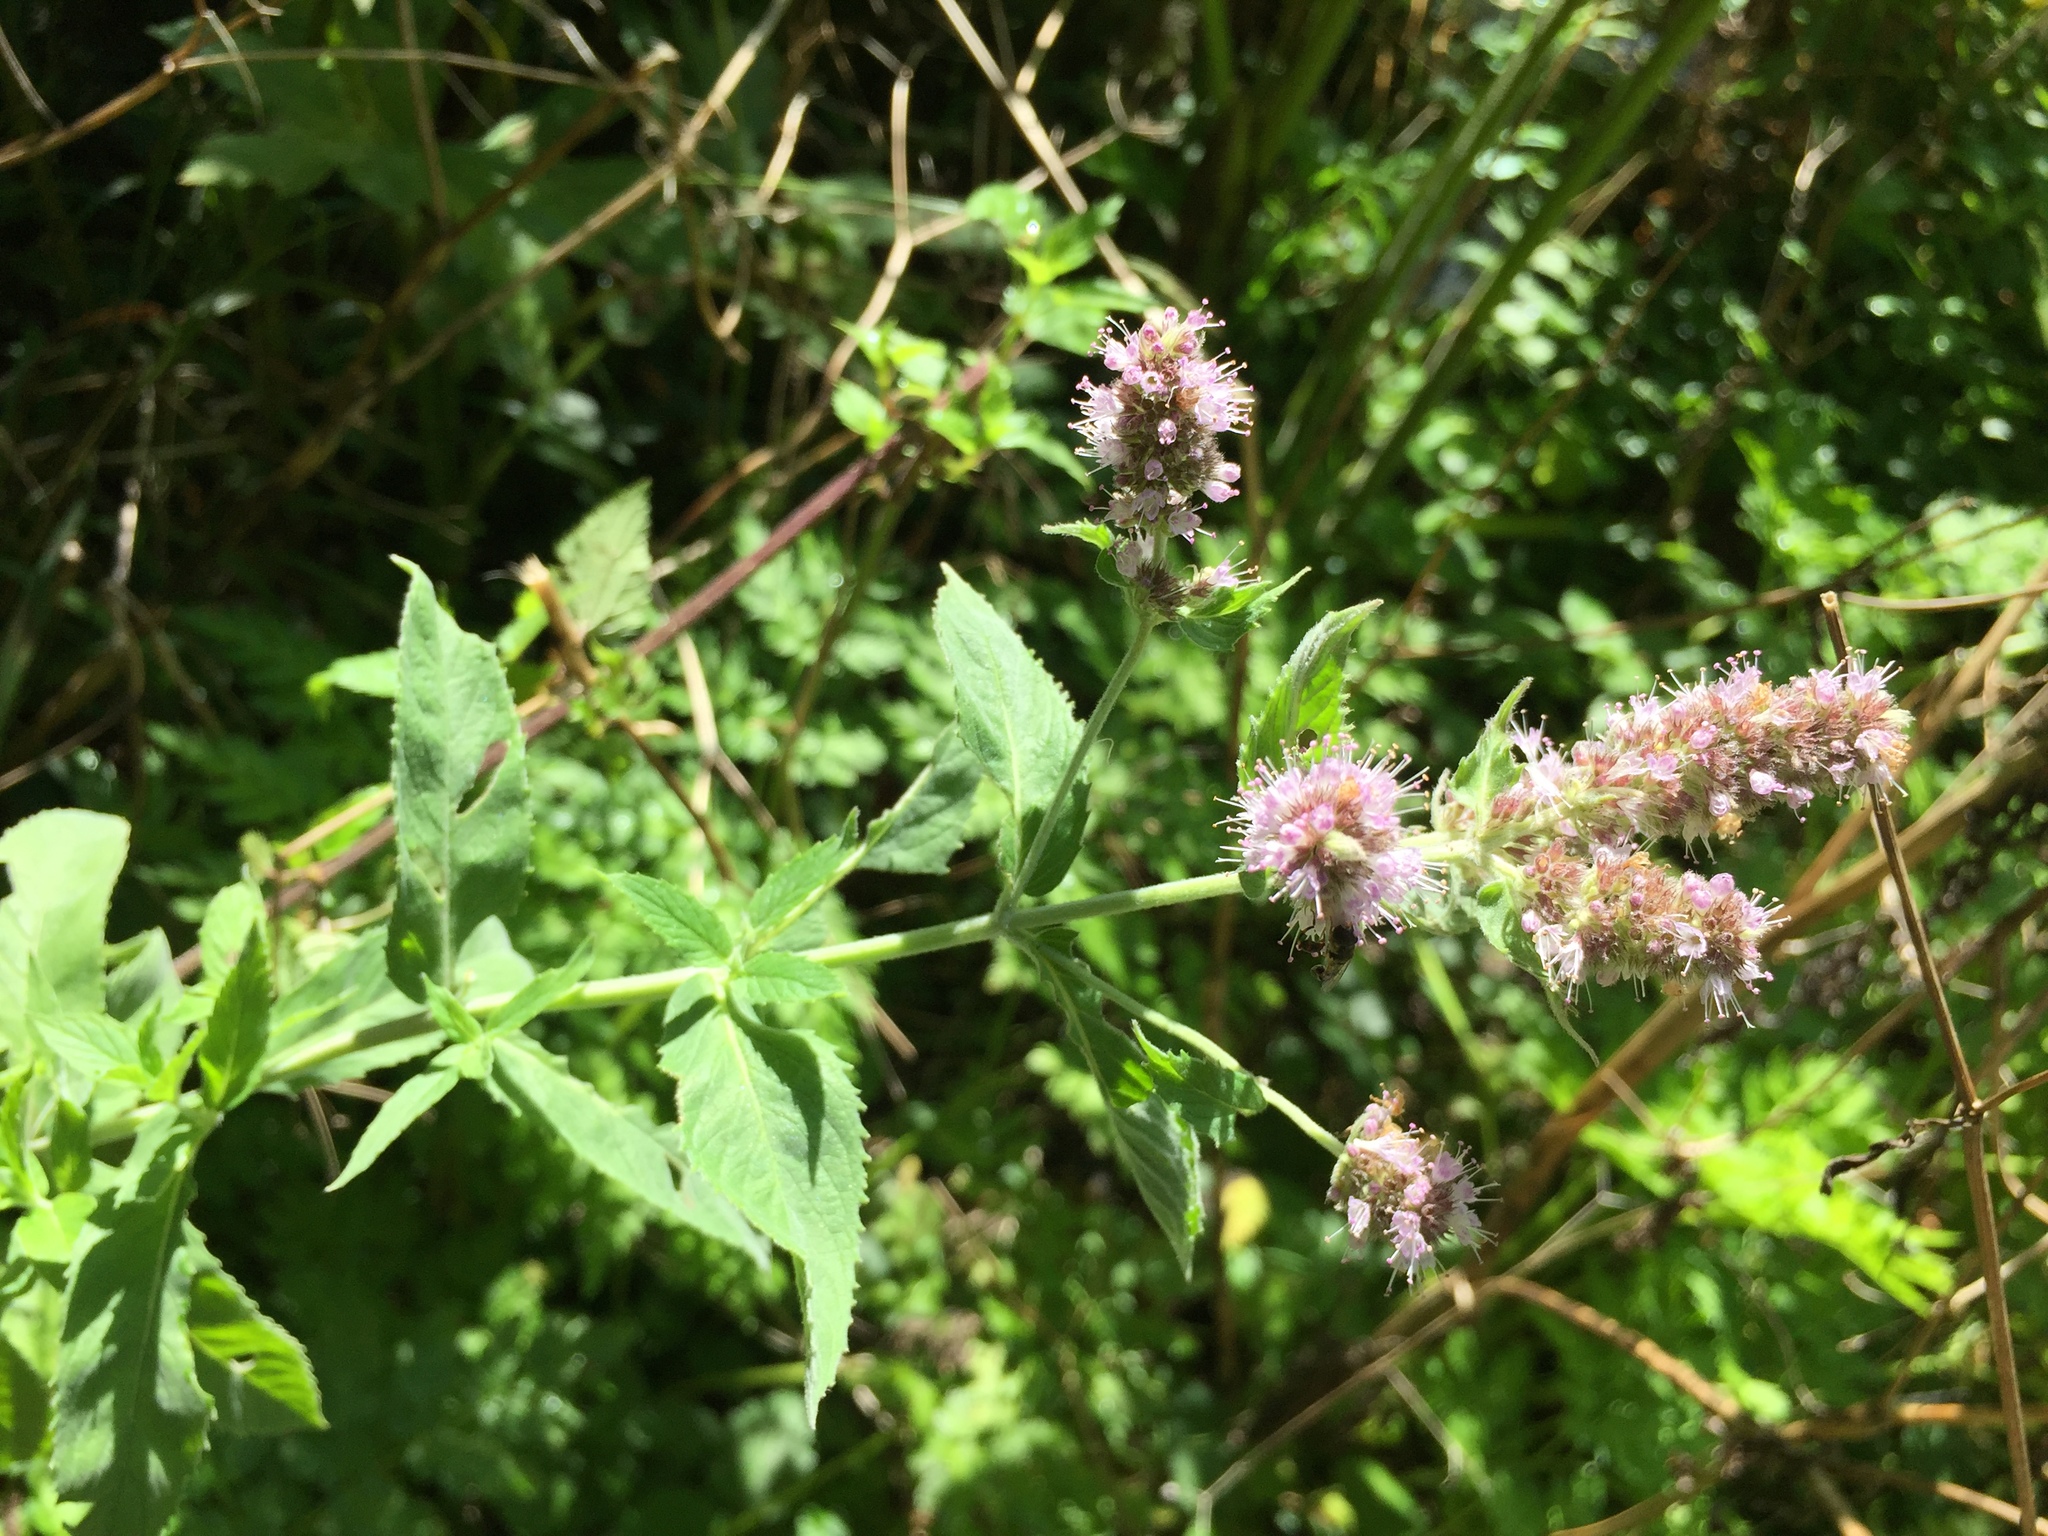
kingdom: Plantae
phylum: Tracheophyta
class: Magnoliopsida
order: Lamiales
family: Lamiaceae
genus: Mentha
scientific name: Mentha longifolia
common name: Horse mint
